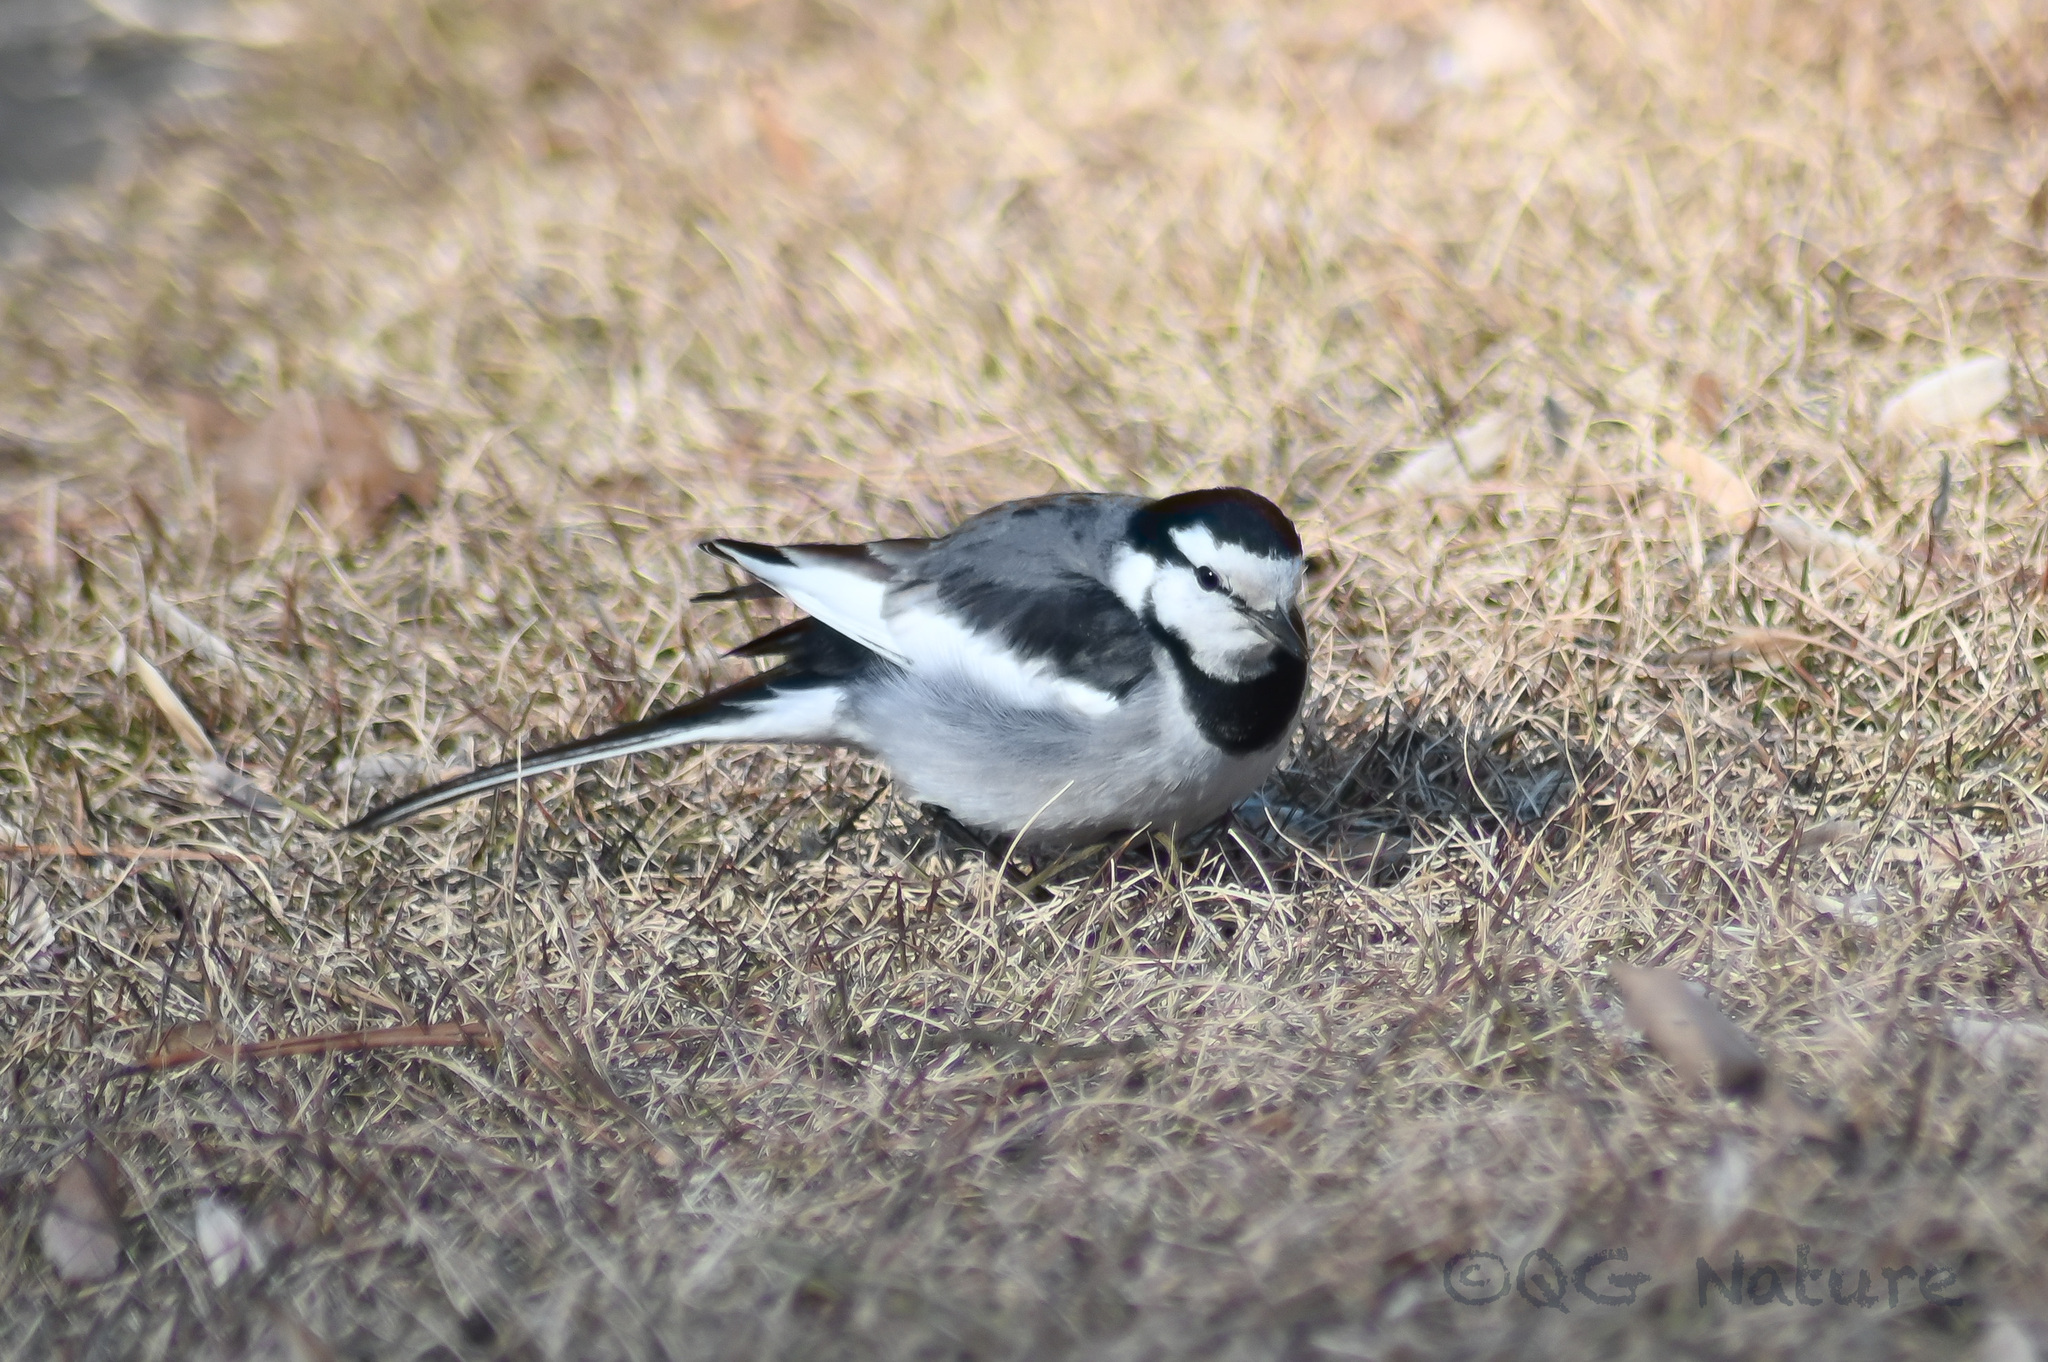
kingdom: Animalia
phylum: Chordata
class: Aves
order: Passeriformes
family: Motacillidae
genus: Motacilla
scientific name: Motacilla alba
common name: White wagtail
